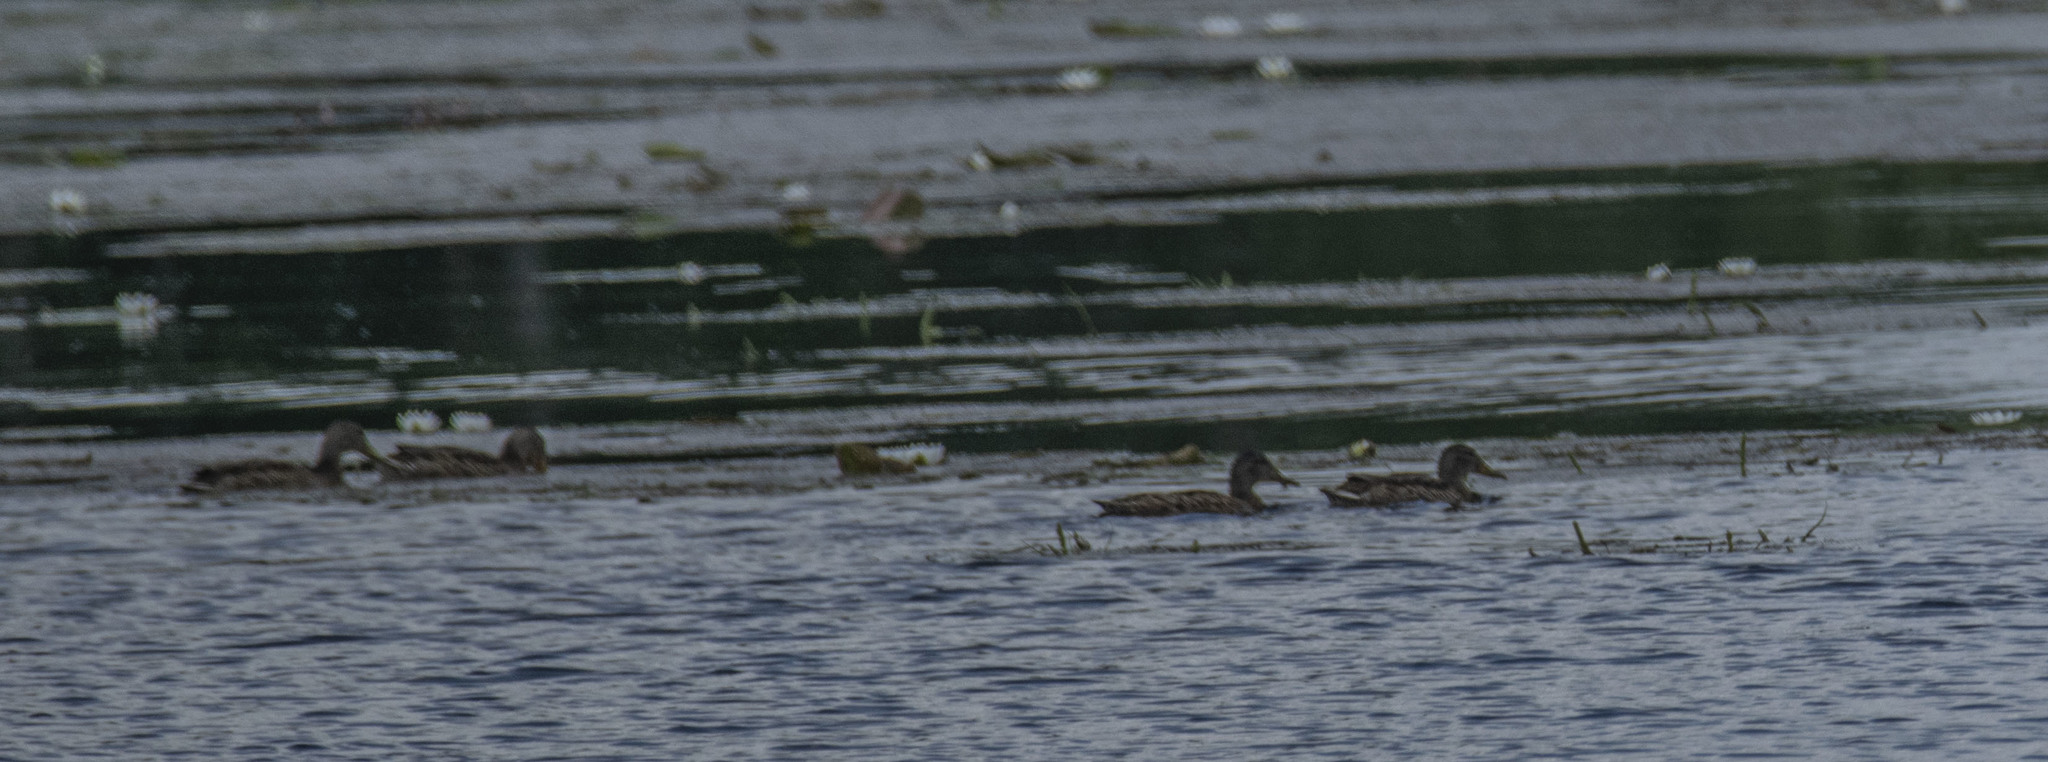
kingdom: Animalia
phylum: Chordata
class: Aves
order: Anseriformes
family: Anatidae
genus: Anas
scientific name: Anas platyrhynchos
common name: Mallard
